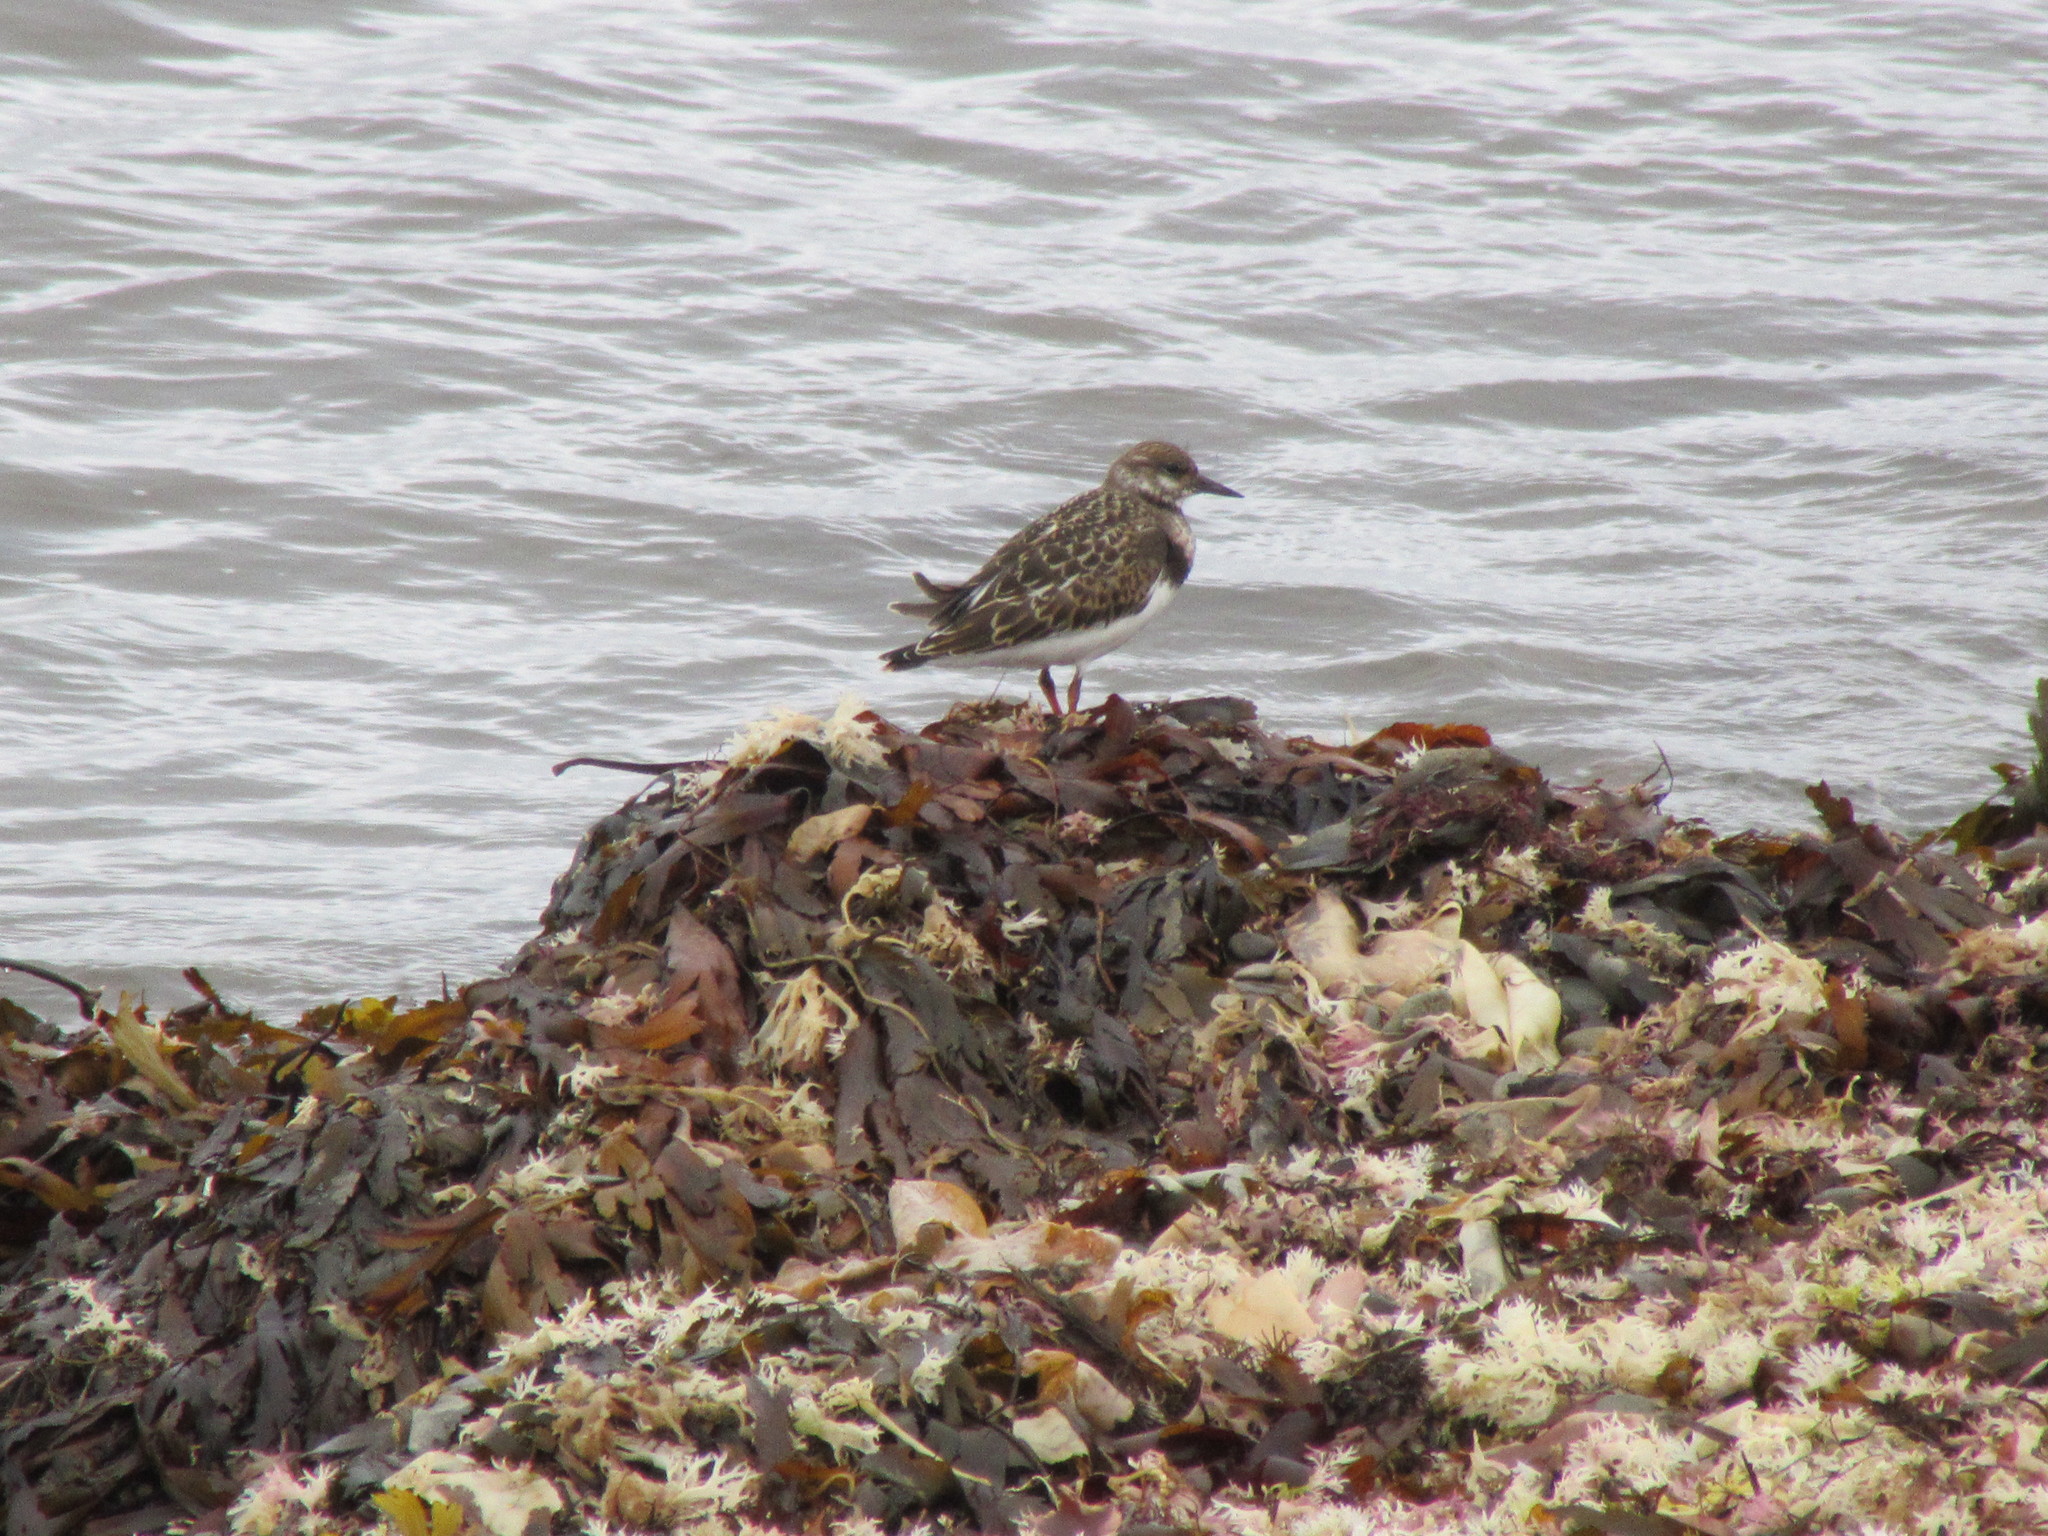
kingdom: Animalia
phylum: Chordata
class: Aves
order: Charadriiformes
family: Scolopacidae
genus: Arenaria
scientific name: Arenaria interpres
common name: Ruddy turnstone
